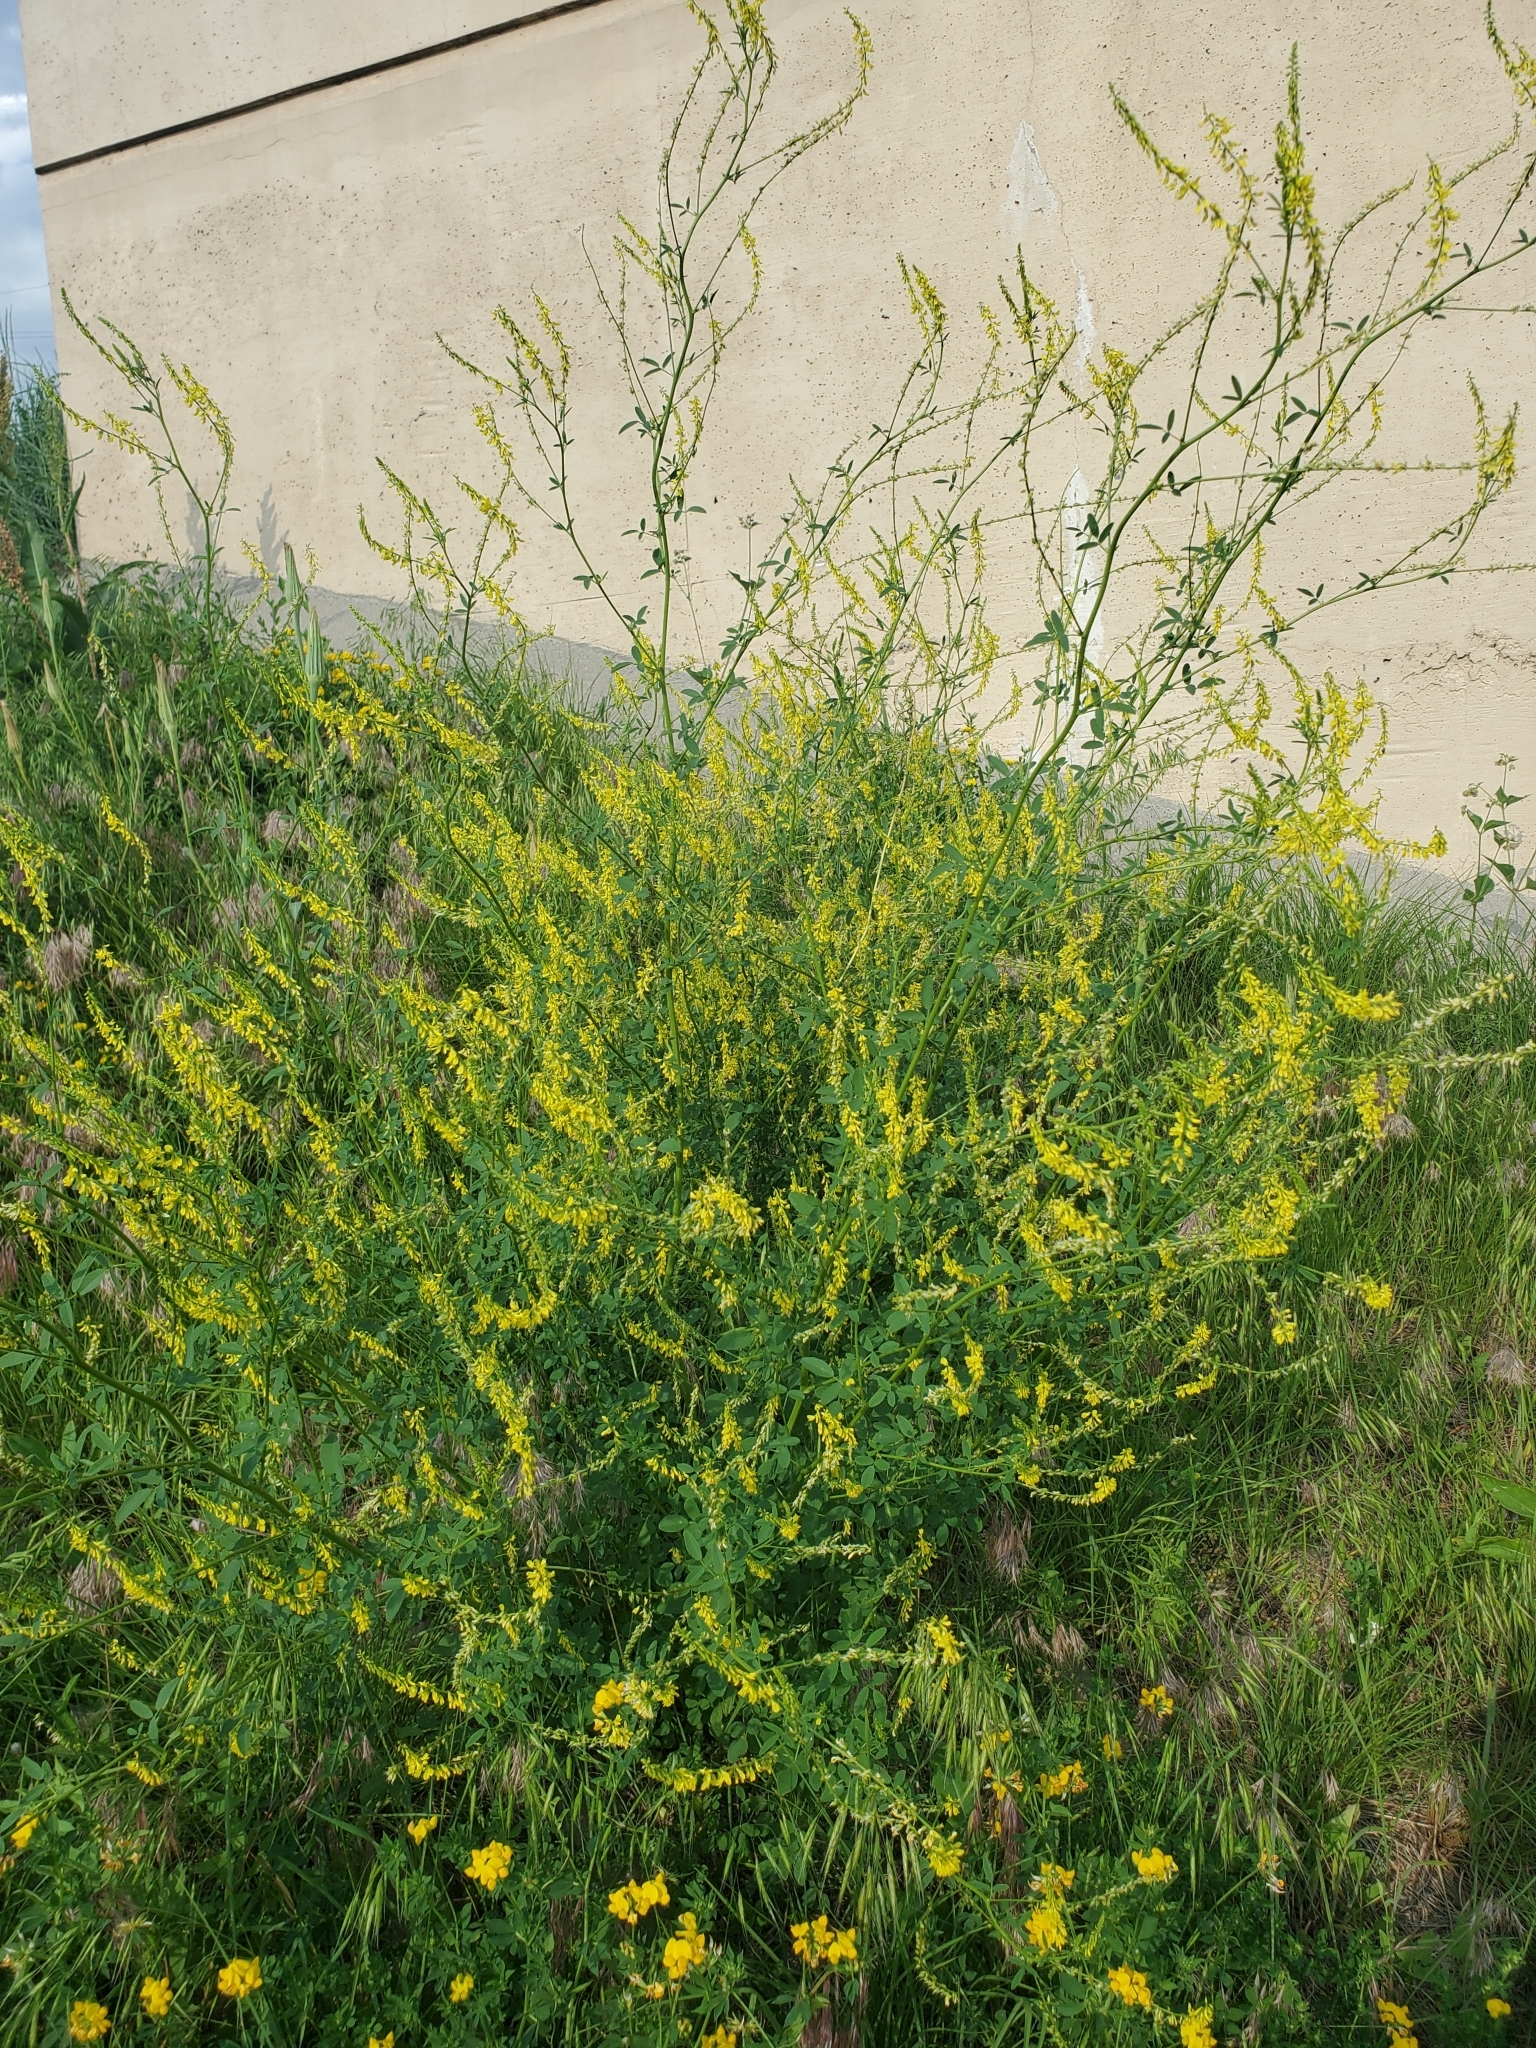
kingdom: Plantae
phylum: Tracheophyta
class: Magnoliopsida
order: Fabales
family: Fabaceae
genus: Melilotus
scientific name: Melilotus officinalis
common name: Sweetclover
